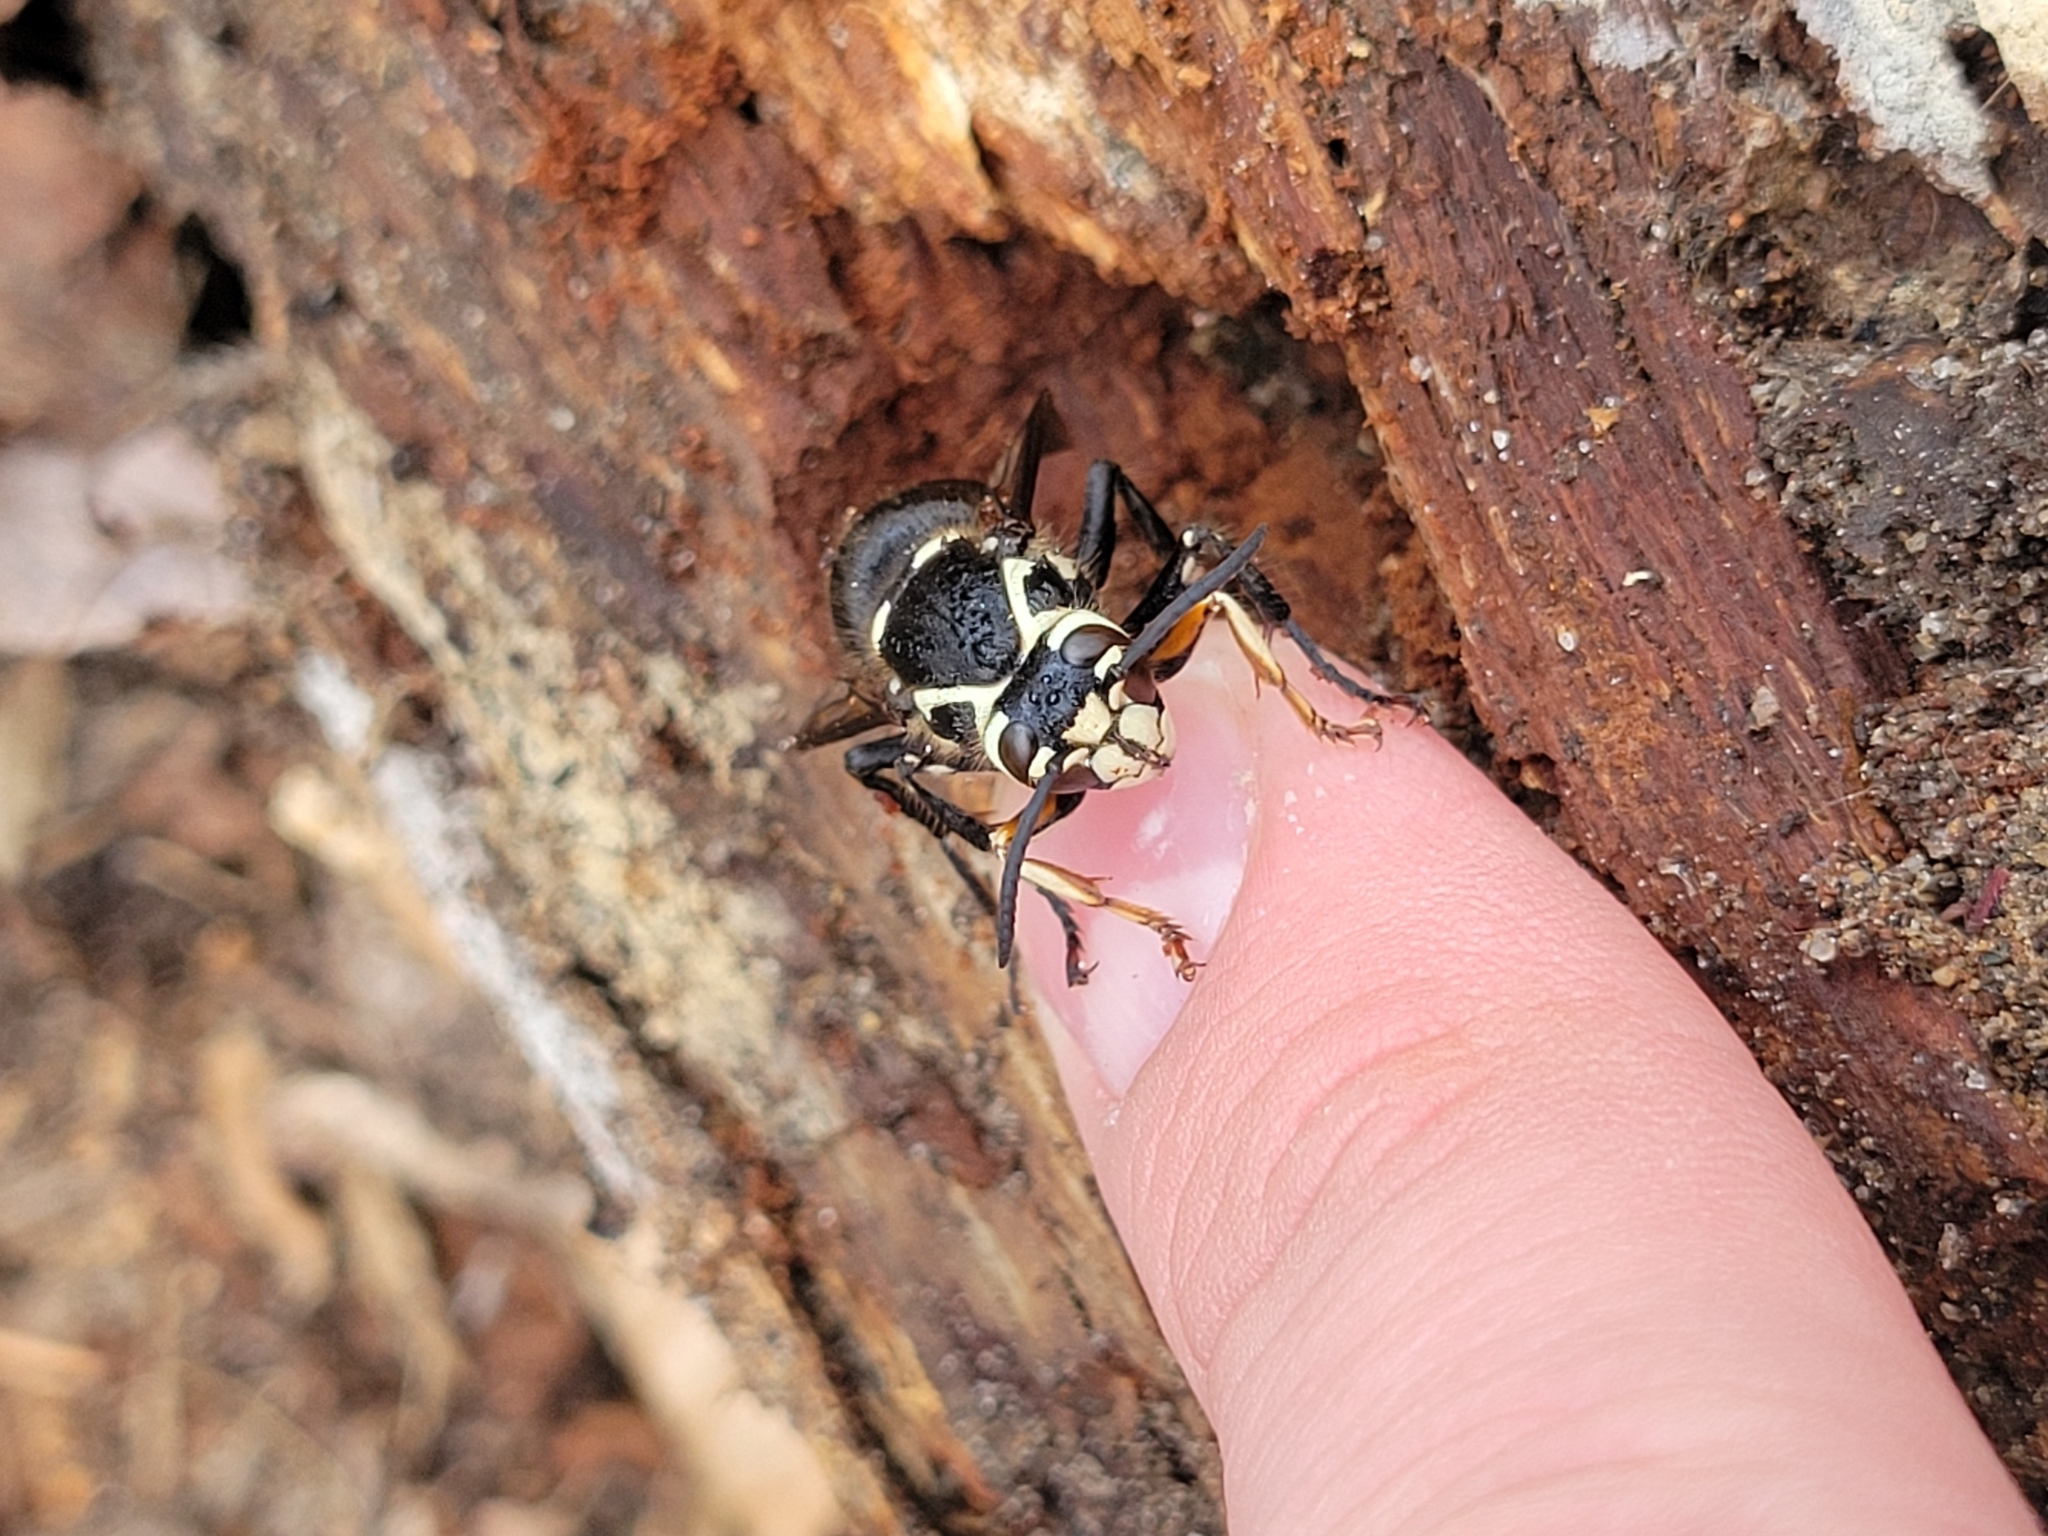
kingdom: Animalia
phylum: Arthropoda
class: Insecta
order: Hymenoptera
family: Vespidae
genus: Dolichovespula
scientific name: Dolichovespula maculata
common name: Bald-faced hornet
